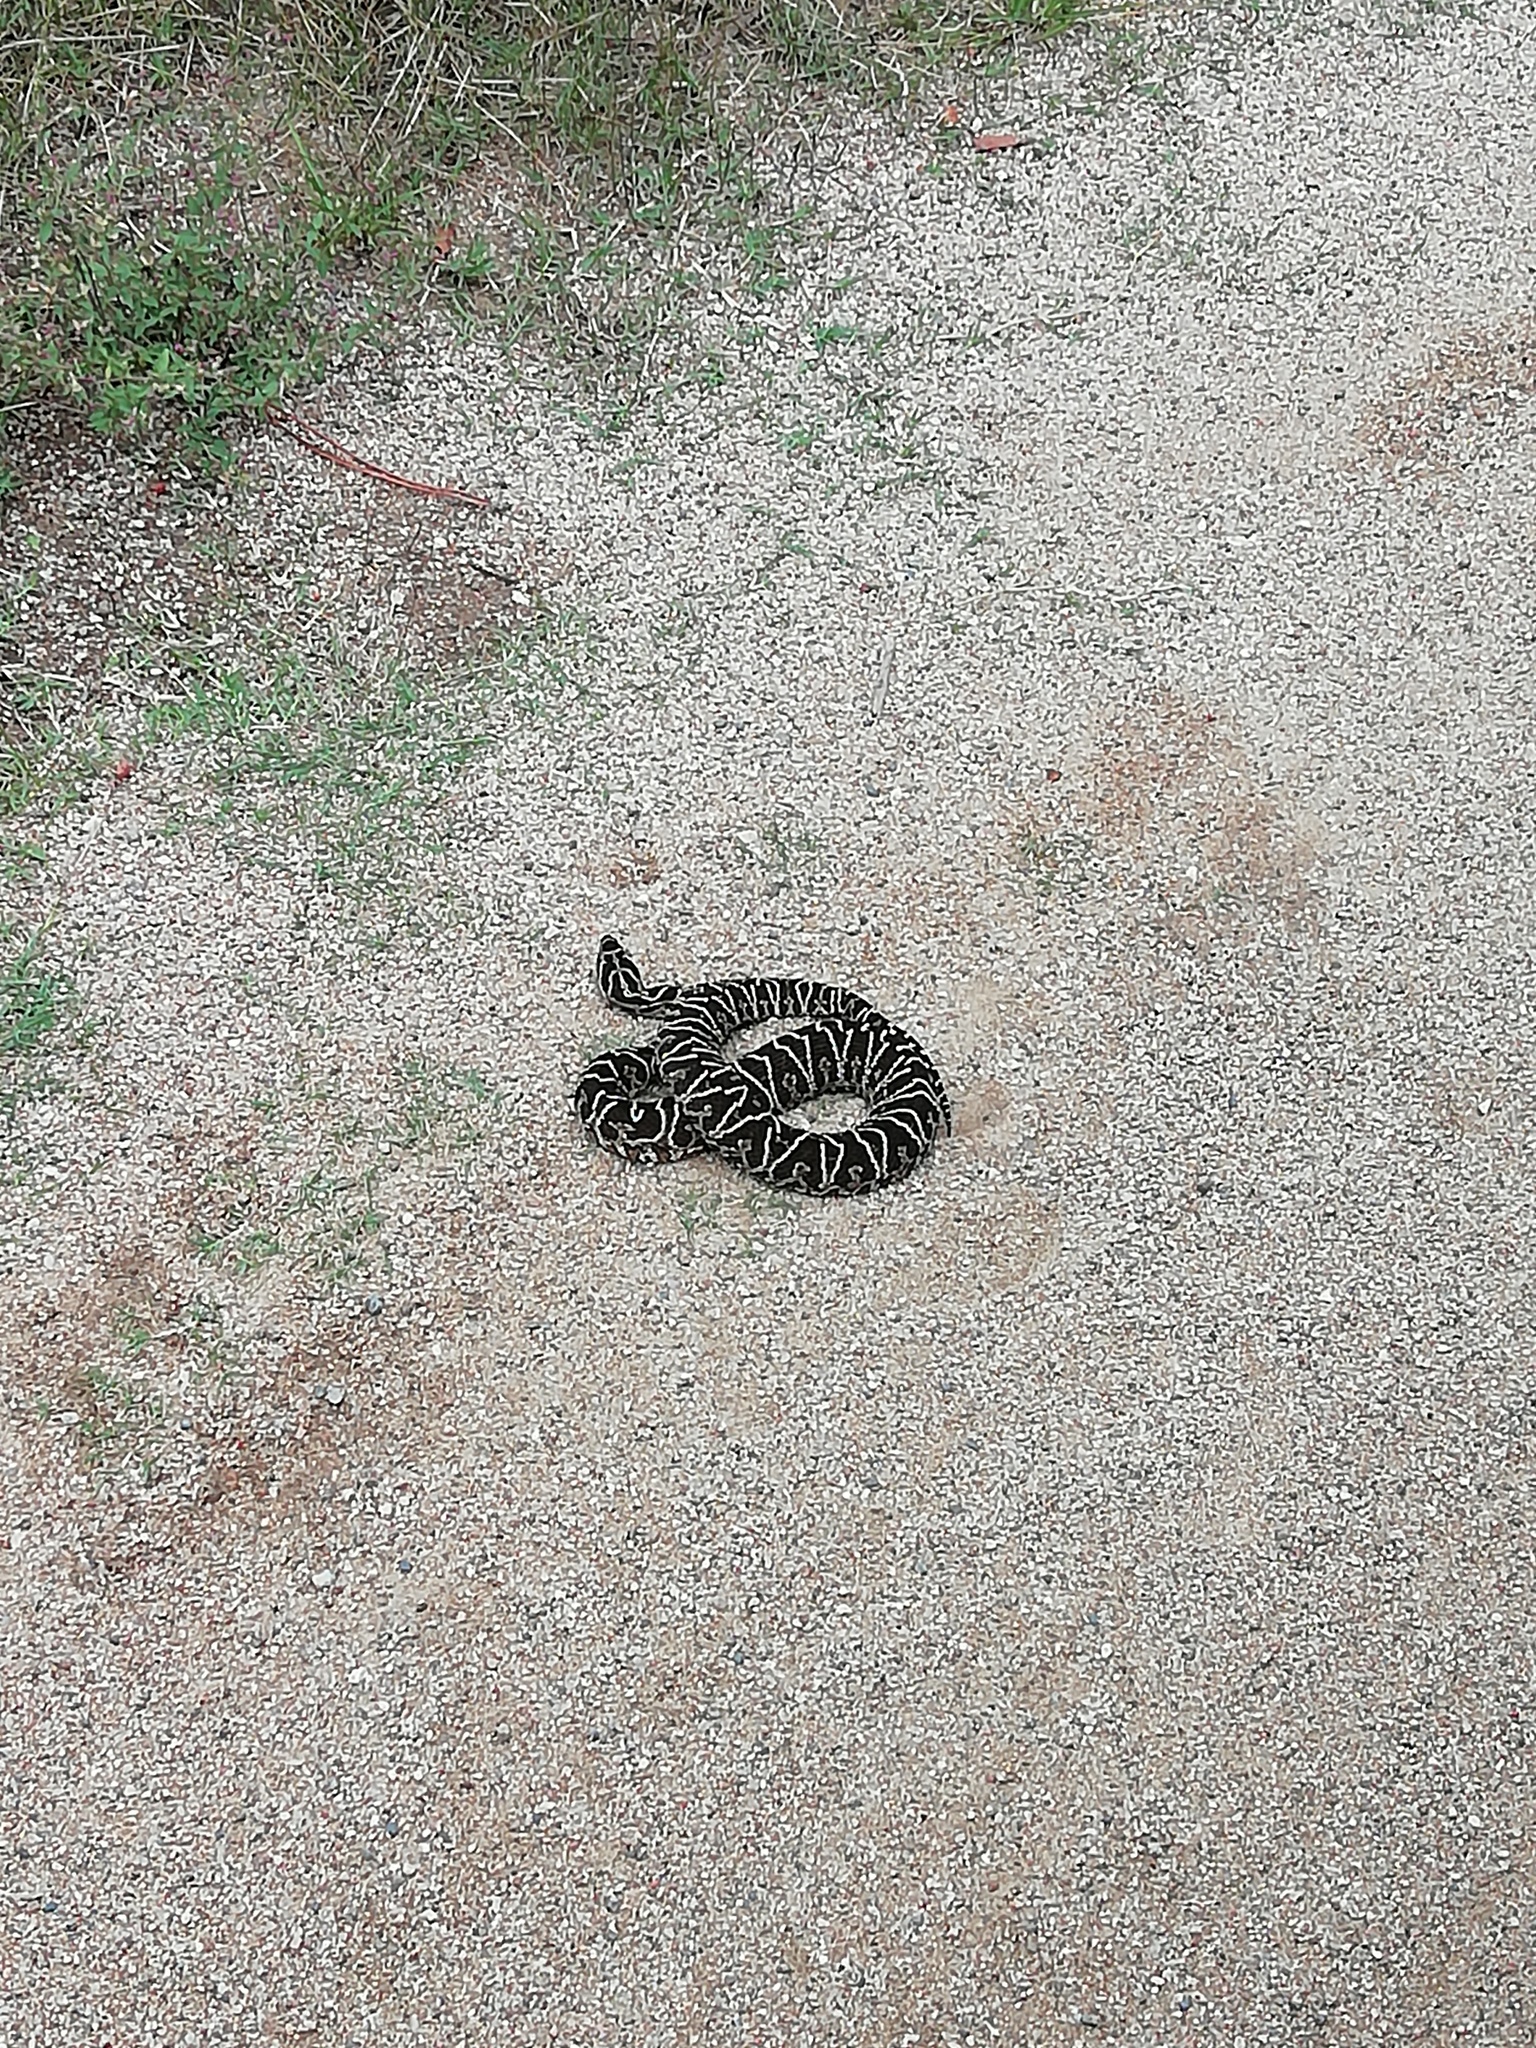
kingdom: Animalia
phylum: Chordata
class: Squamata
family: Viperidae
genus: Bothrops
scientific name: Bothrops alternatus
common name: Urutu
